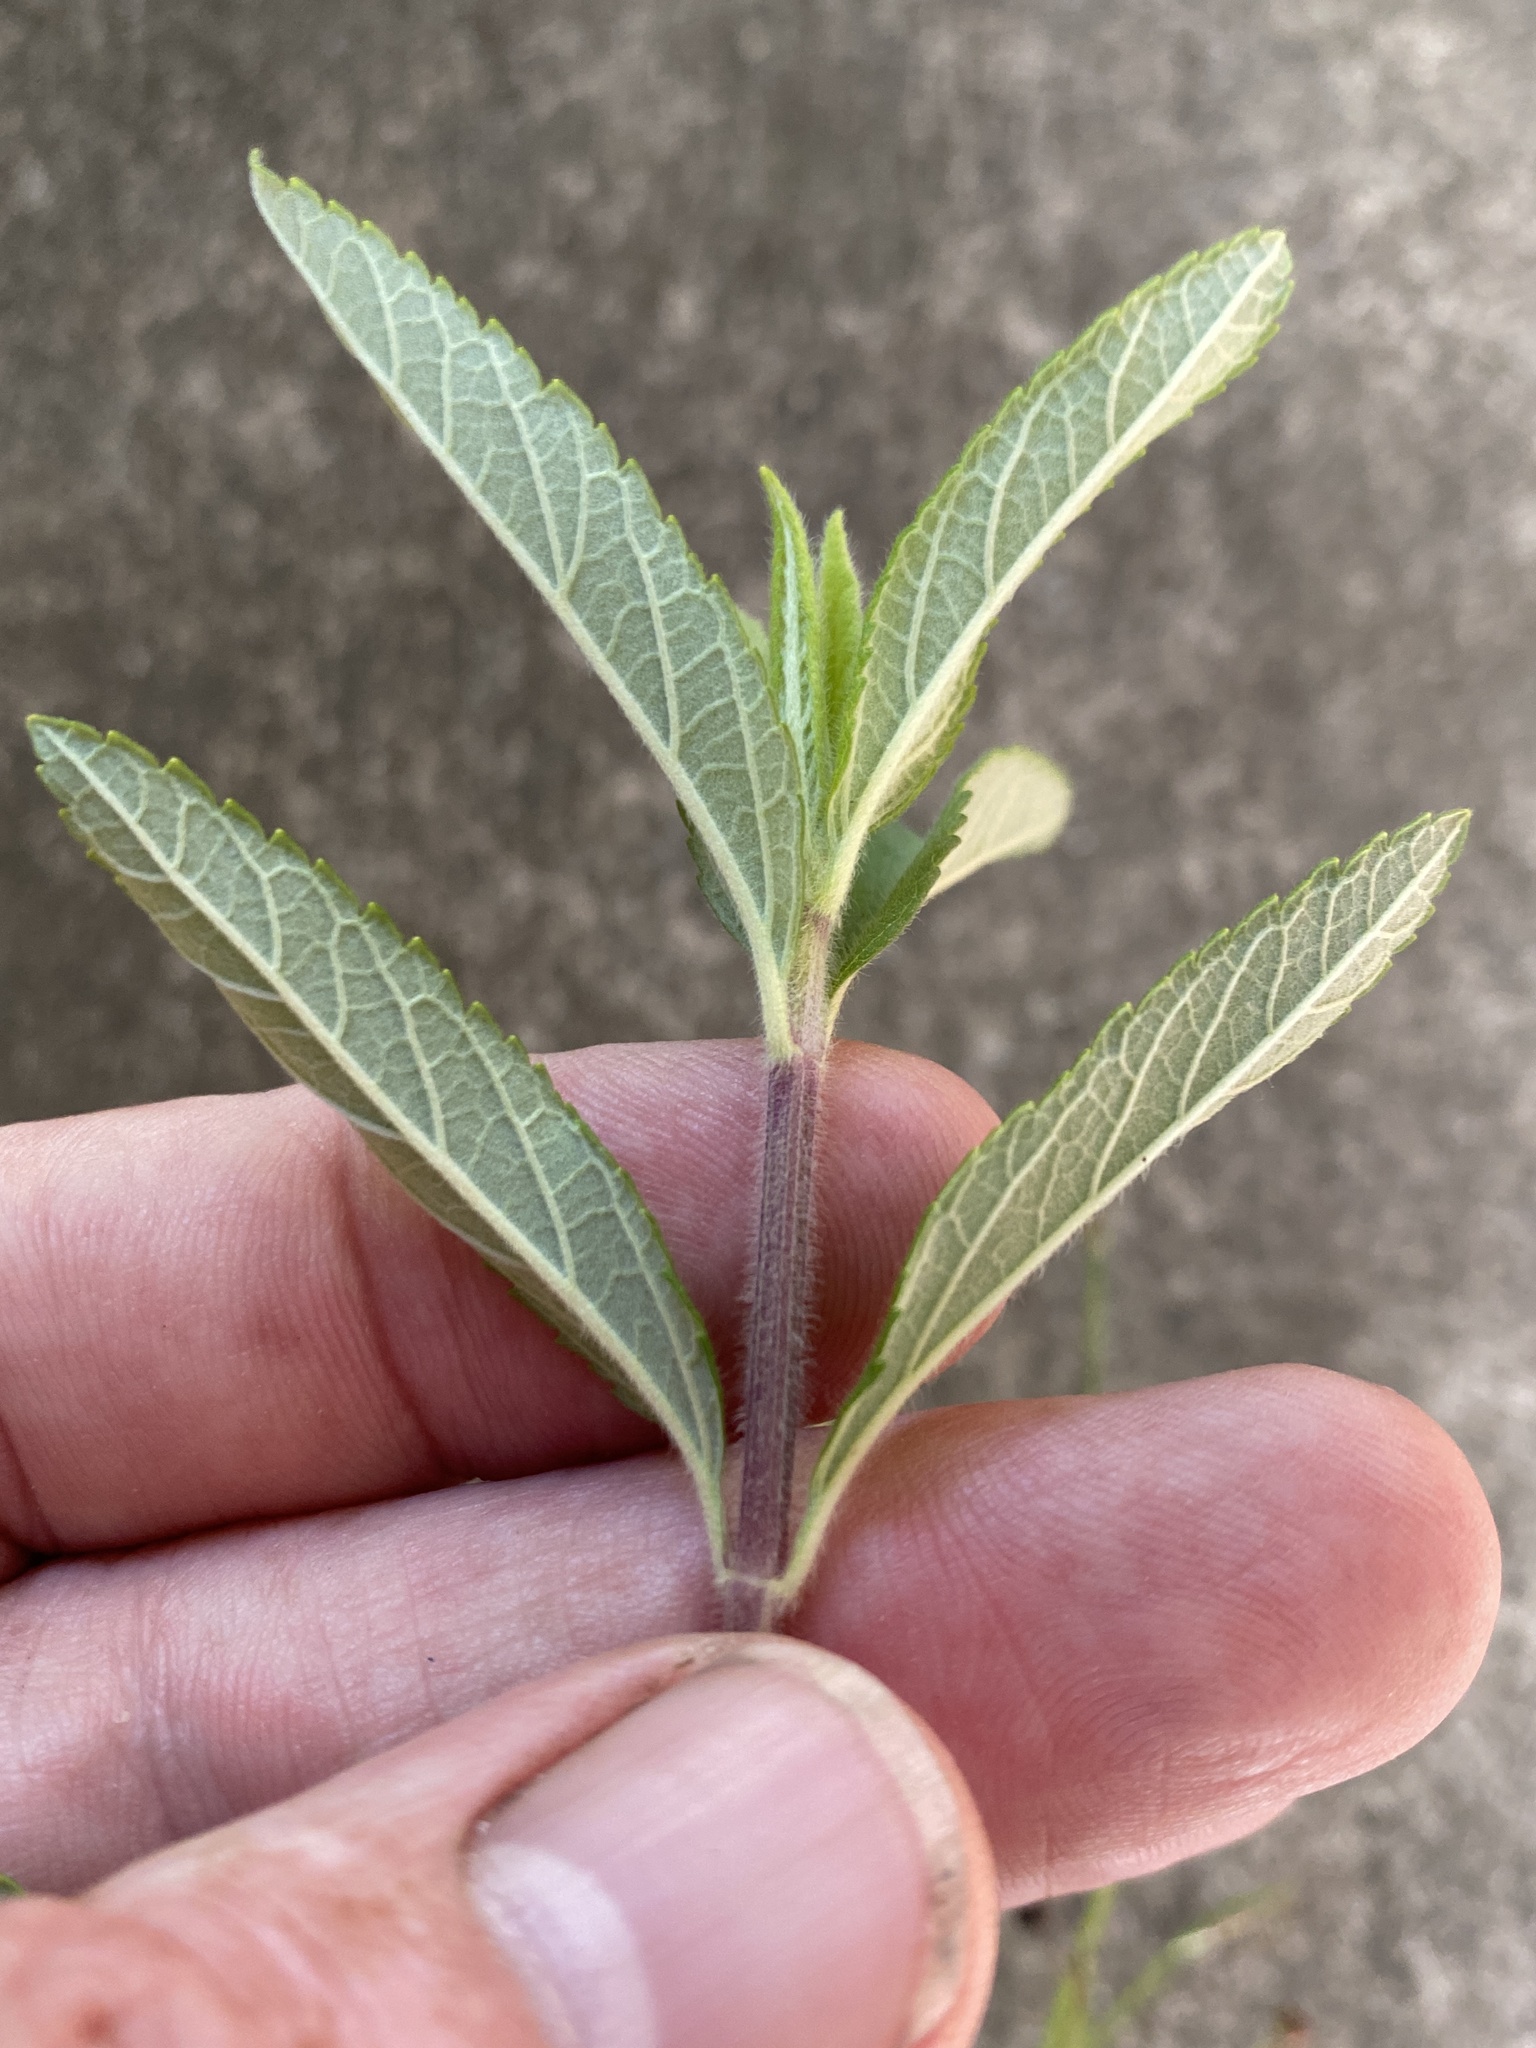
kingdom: Plantae
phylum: Tracheophyta
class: Magnoliopsida
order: Lamiales
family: Lamiaceae
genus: Teucrium
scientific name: Teucrium canadense
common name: American germander
